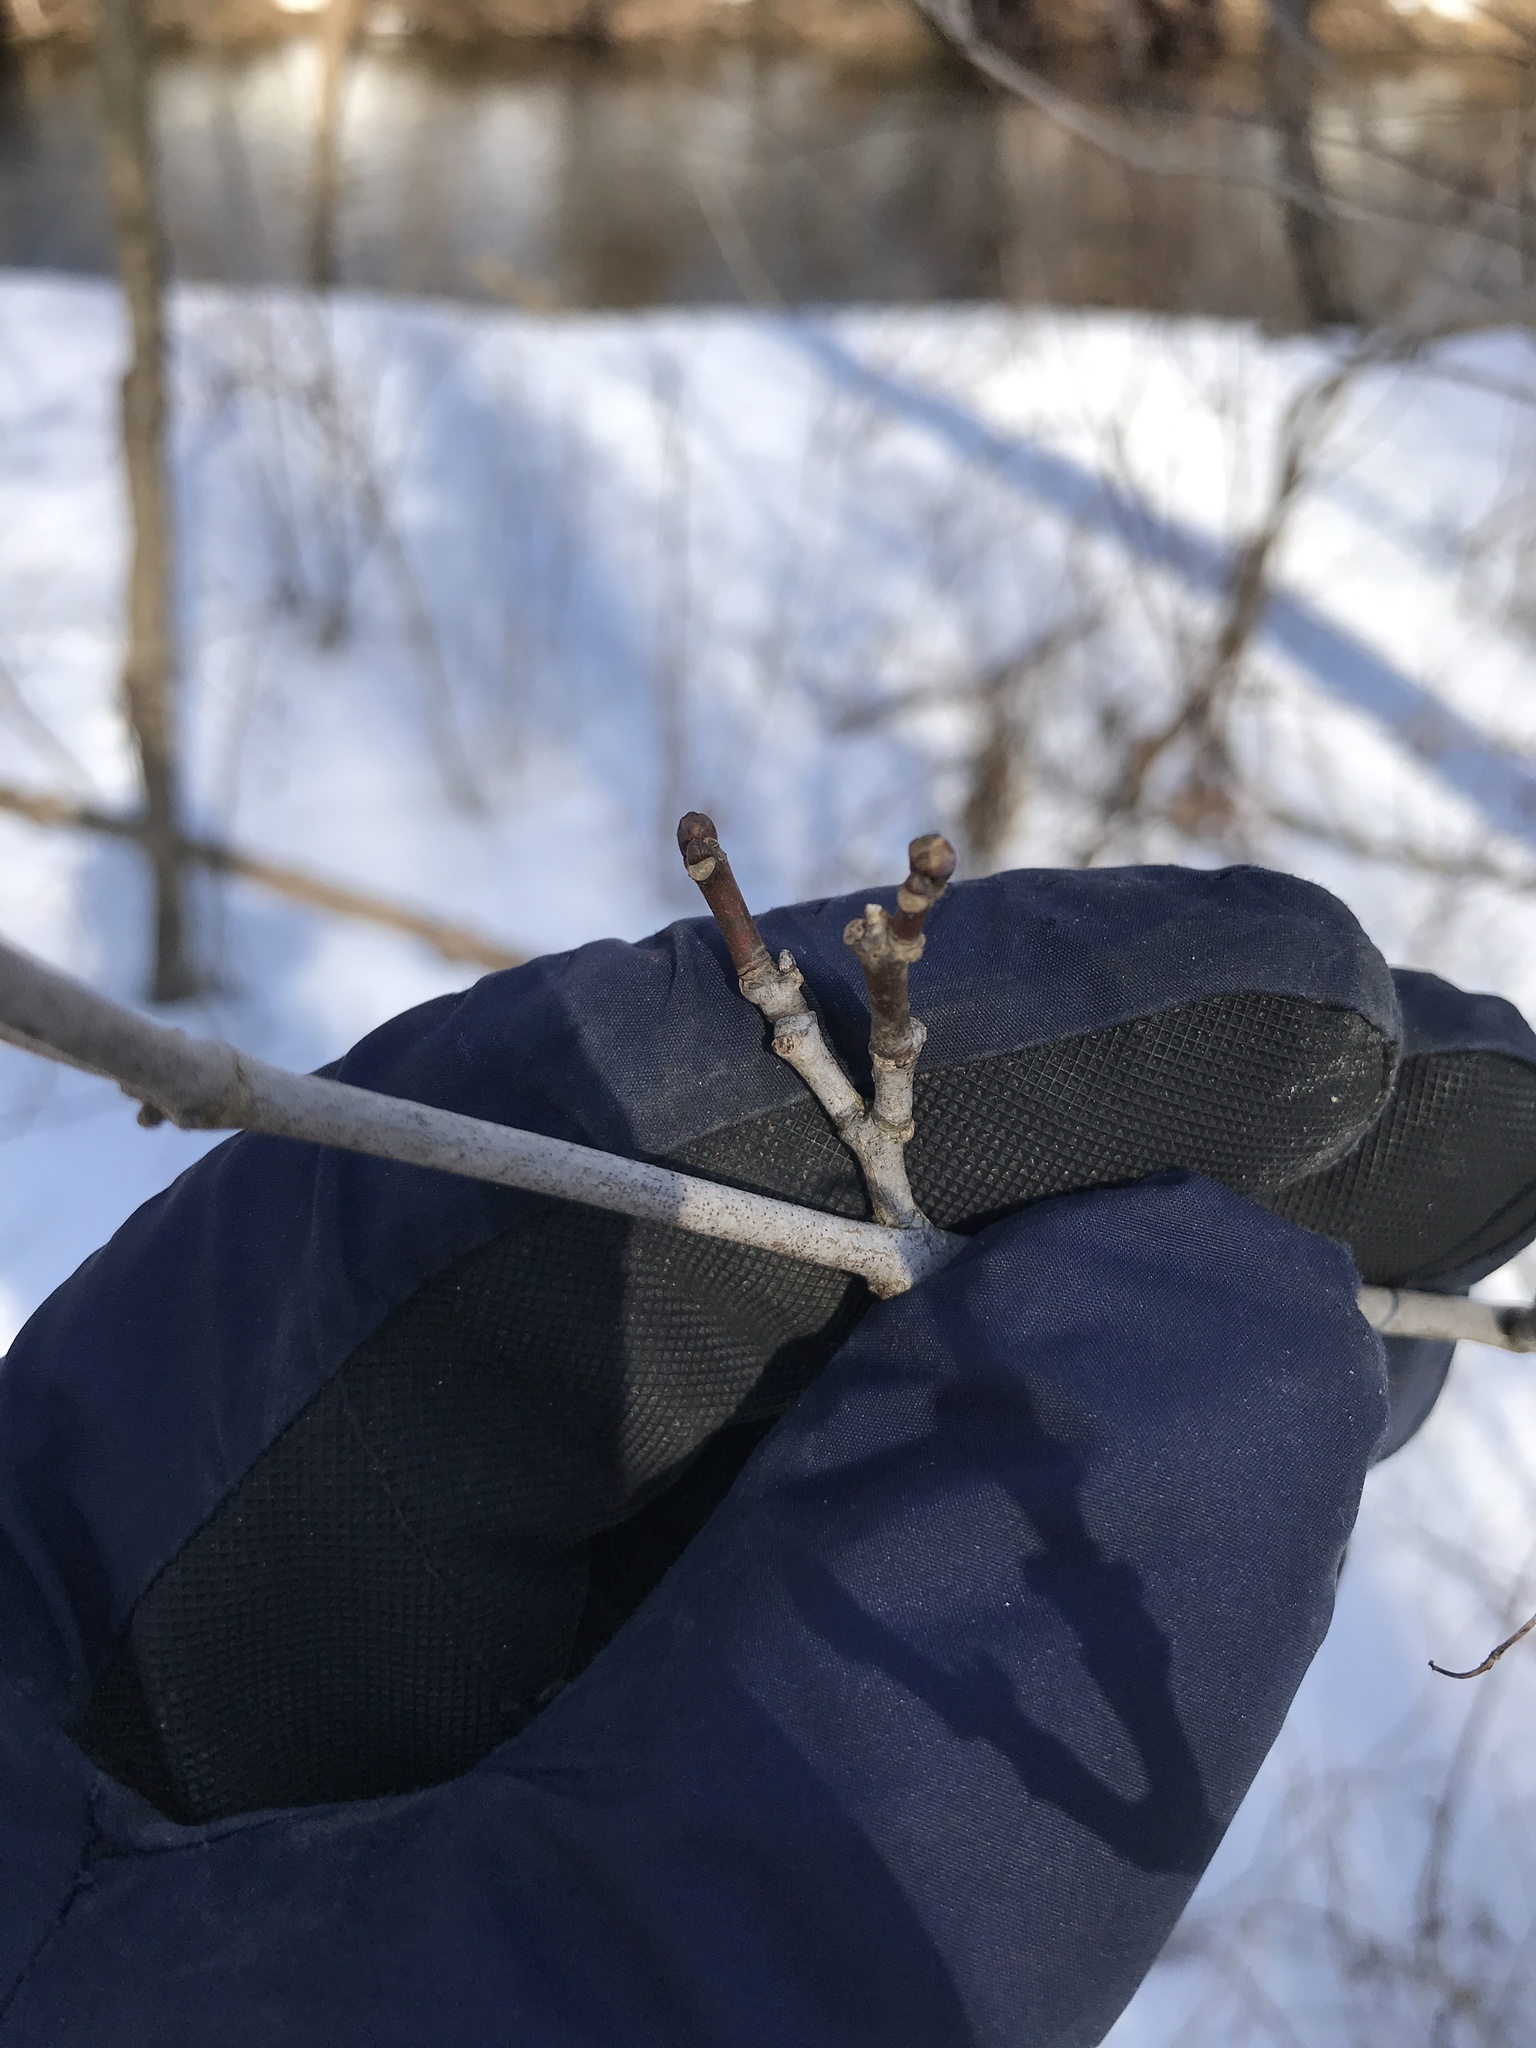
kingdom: Plantae
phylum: Tracheophyta
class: Magnoliopsida
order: Crossosomatales
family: Staphyleaceae
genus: Staphylea
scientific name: Staphylea trifolia
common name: American bladdernut
